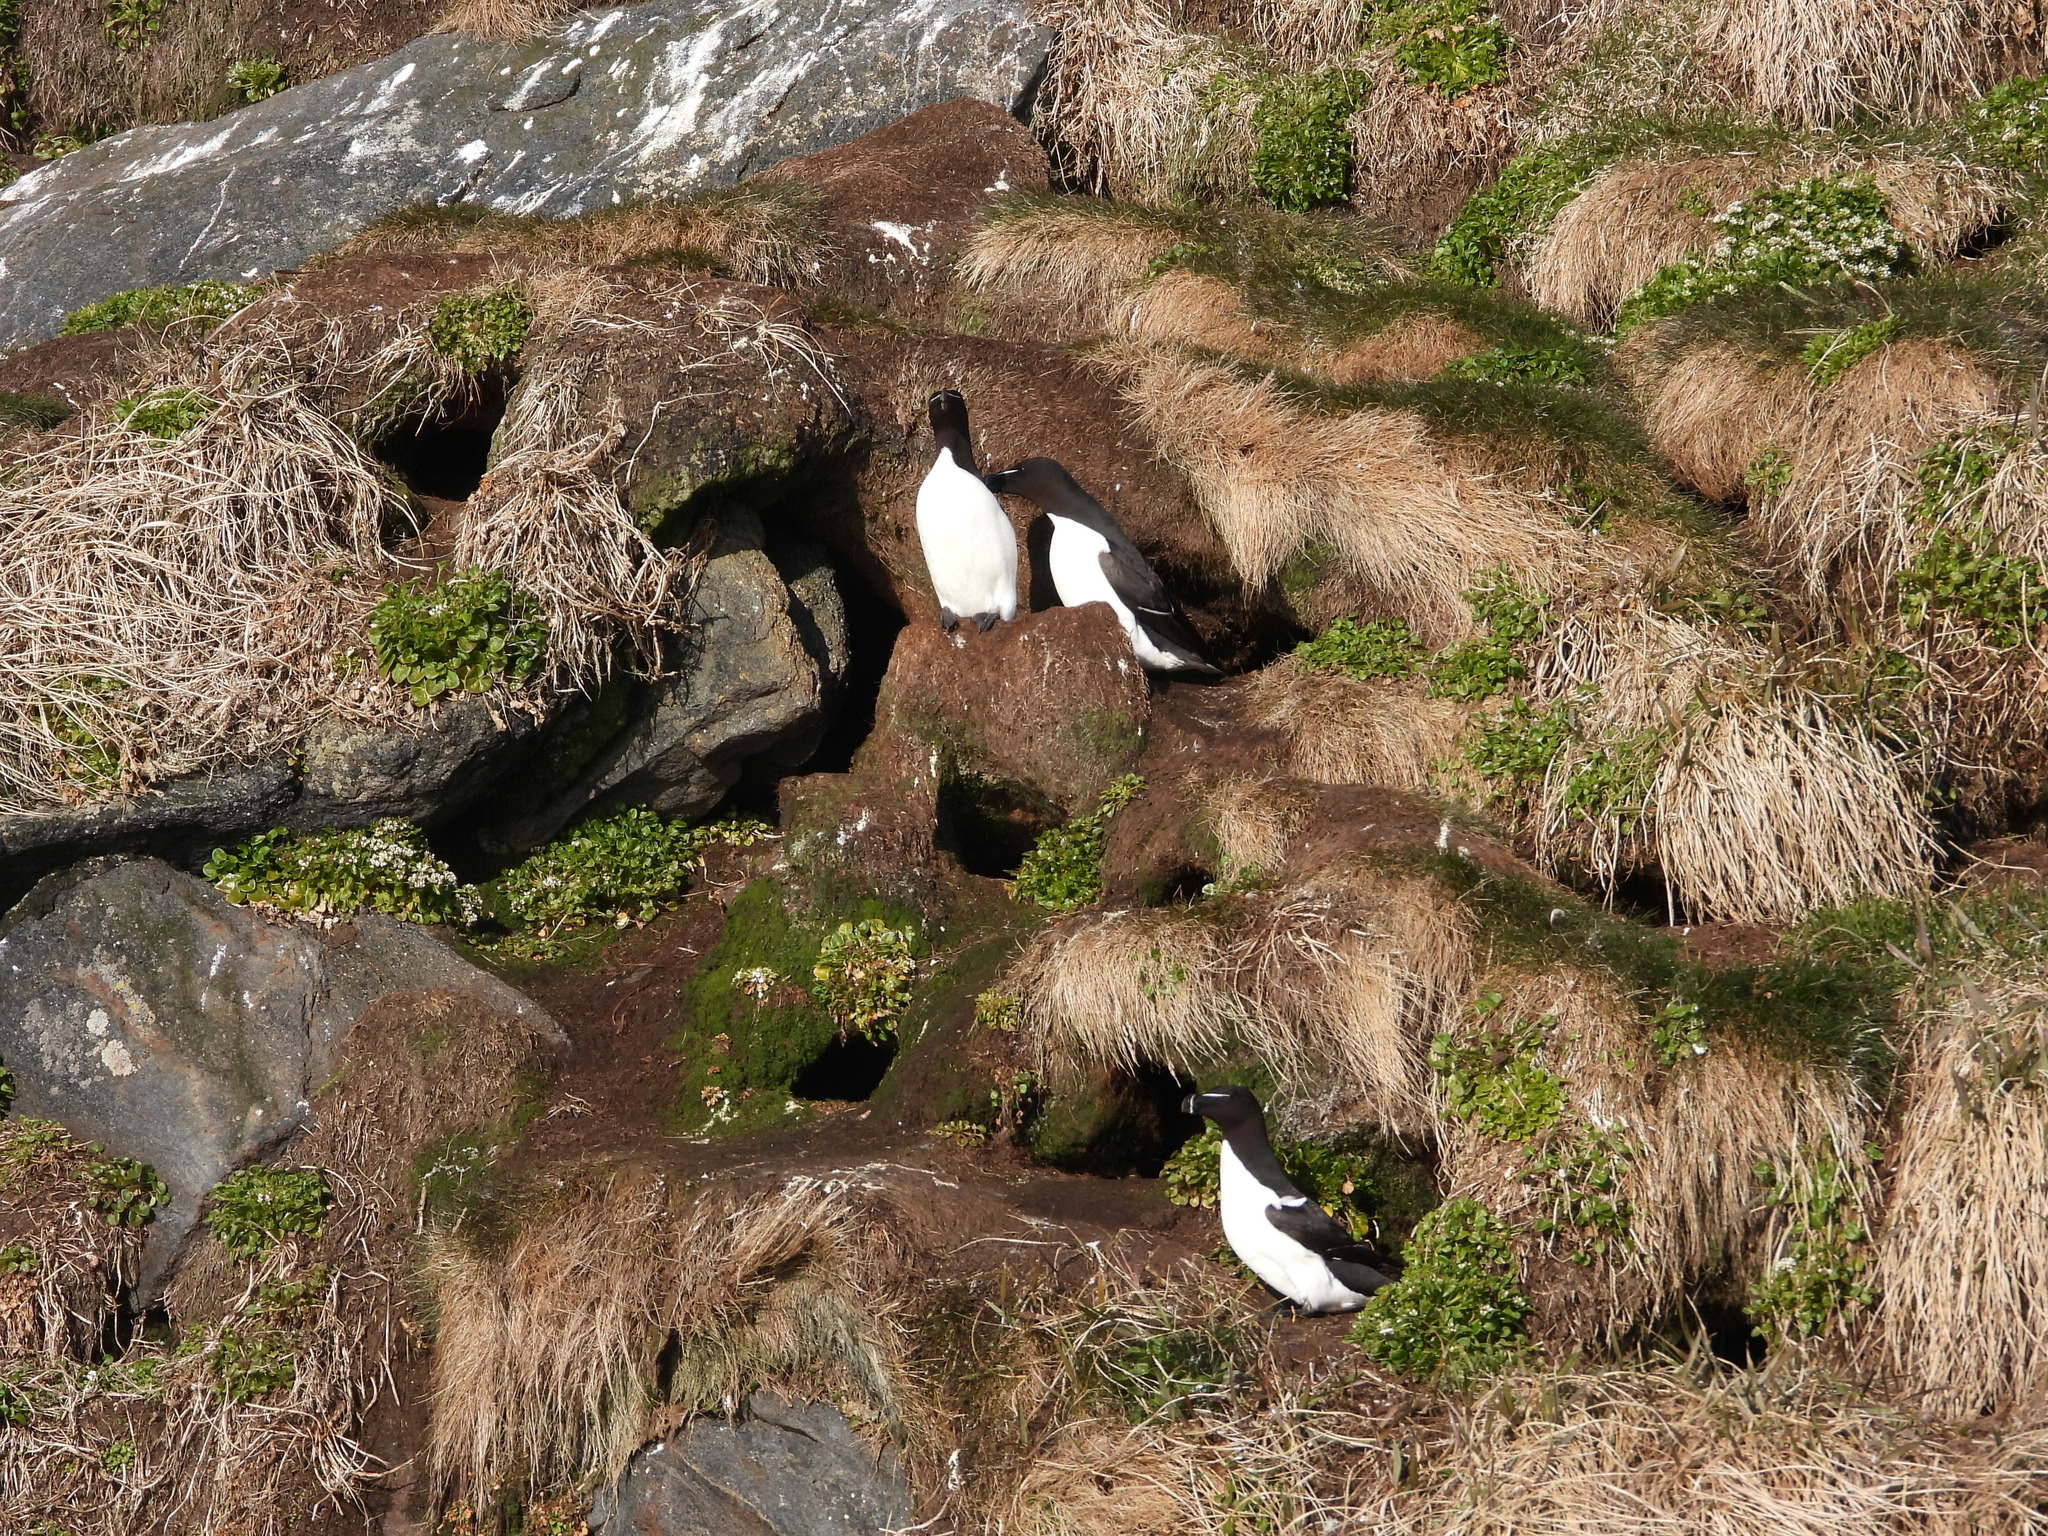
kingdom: Animalia
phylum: Chordata
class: Aves
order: Charadriiformes
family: Alcidae
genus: Alca
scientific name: Alca torda
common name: Razorbill
